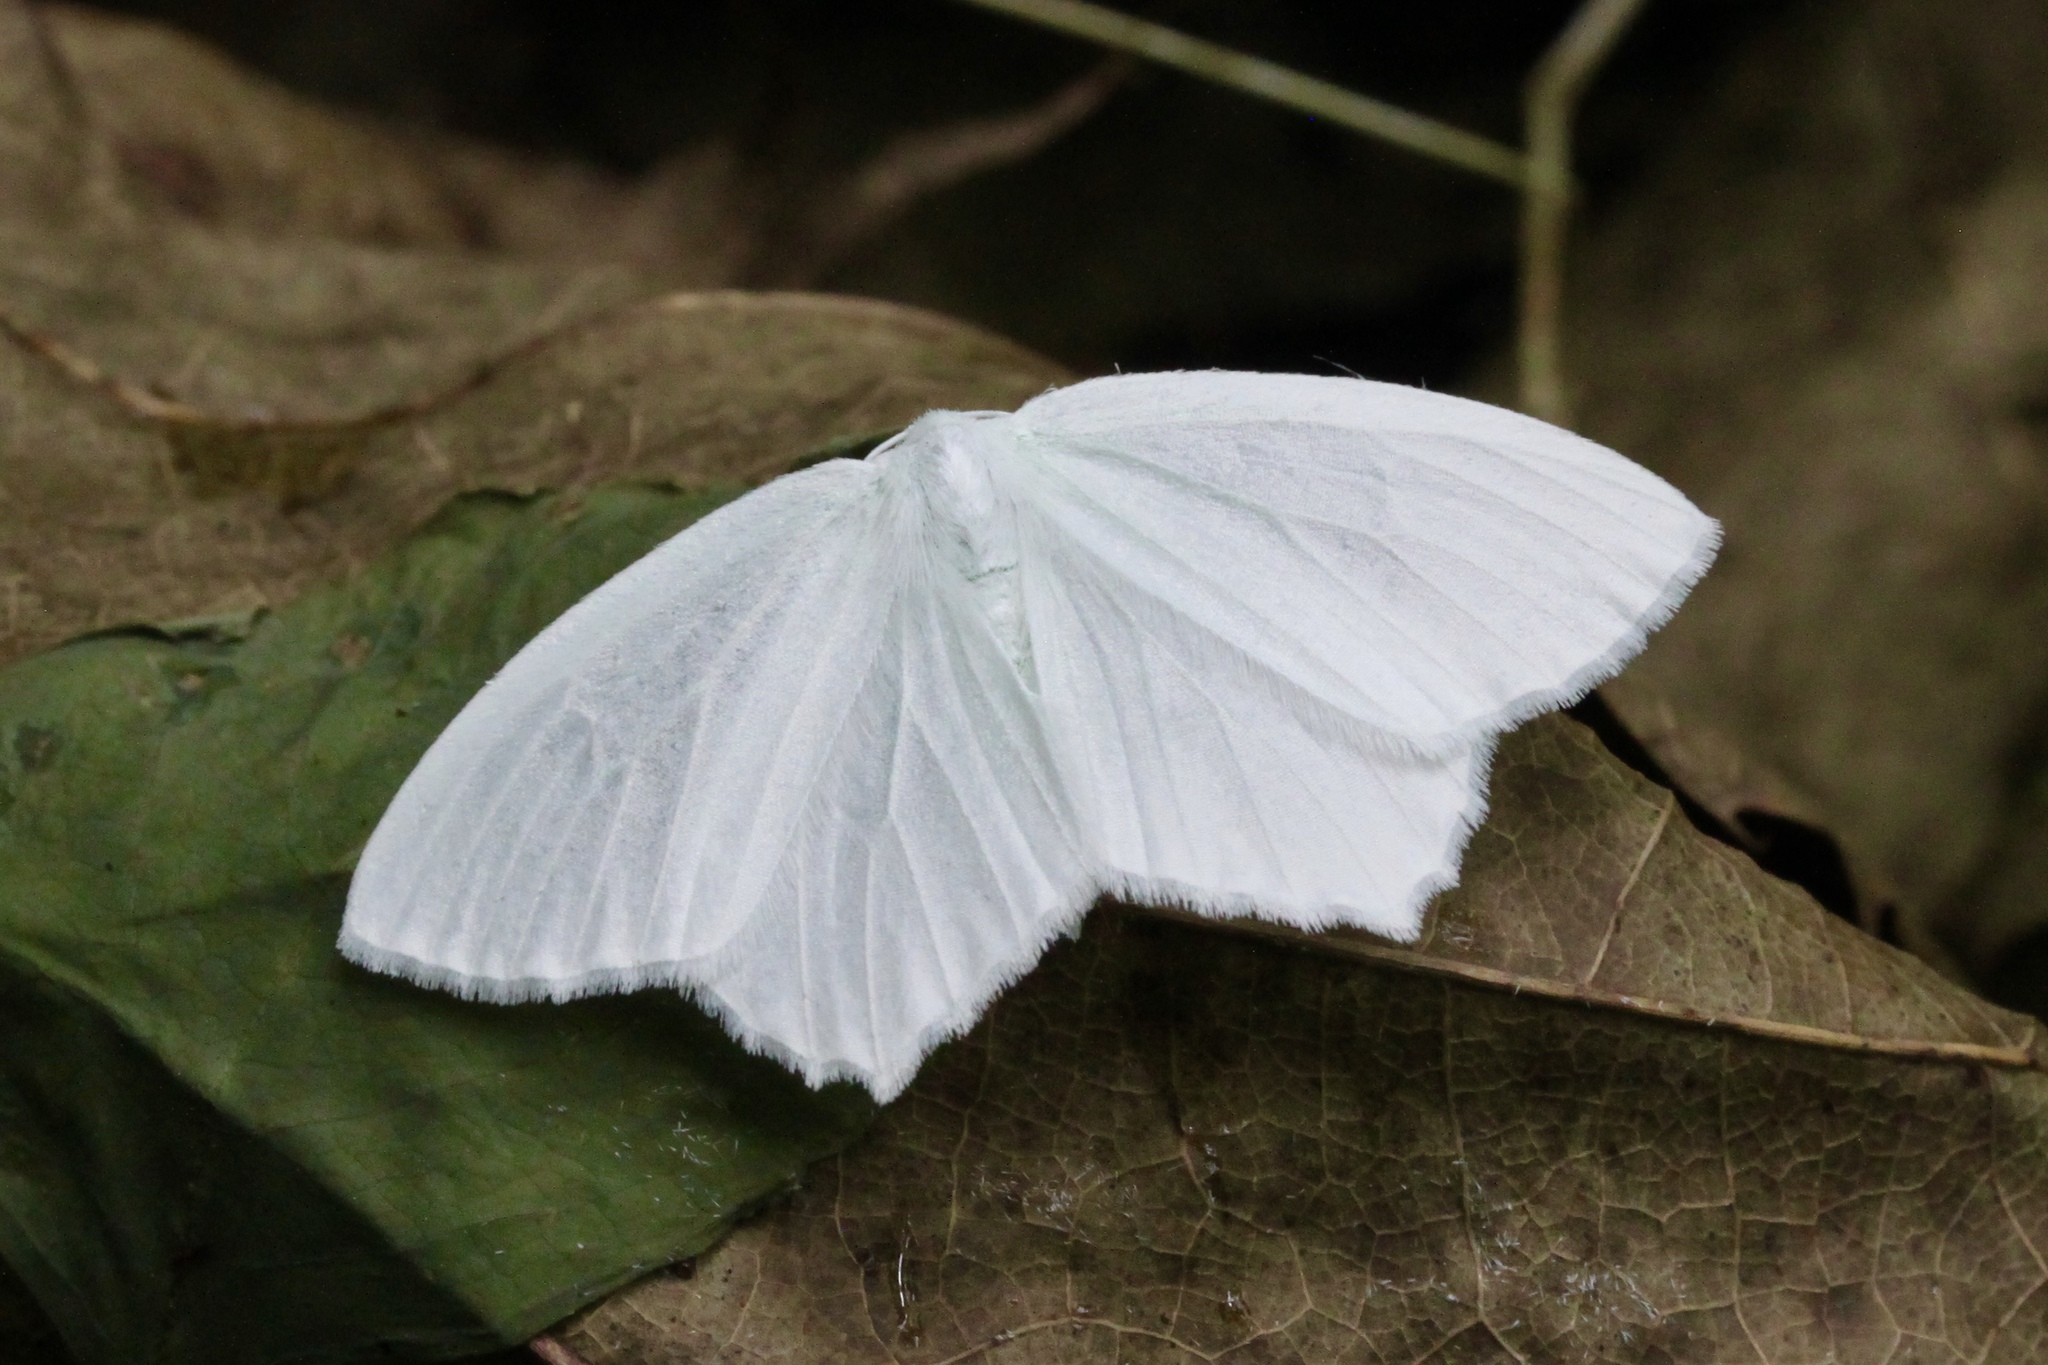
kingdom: Animalia
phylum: Arthropoda
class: Insecta
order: Lepidoptera
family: Geometridae
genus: Eugonobapta
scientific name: Eugonobapta nivosaria
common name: Snowy geometer
